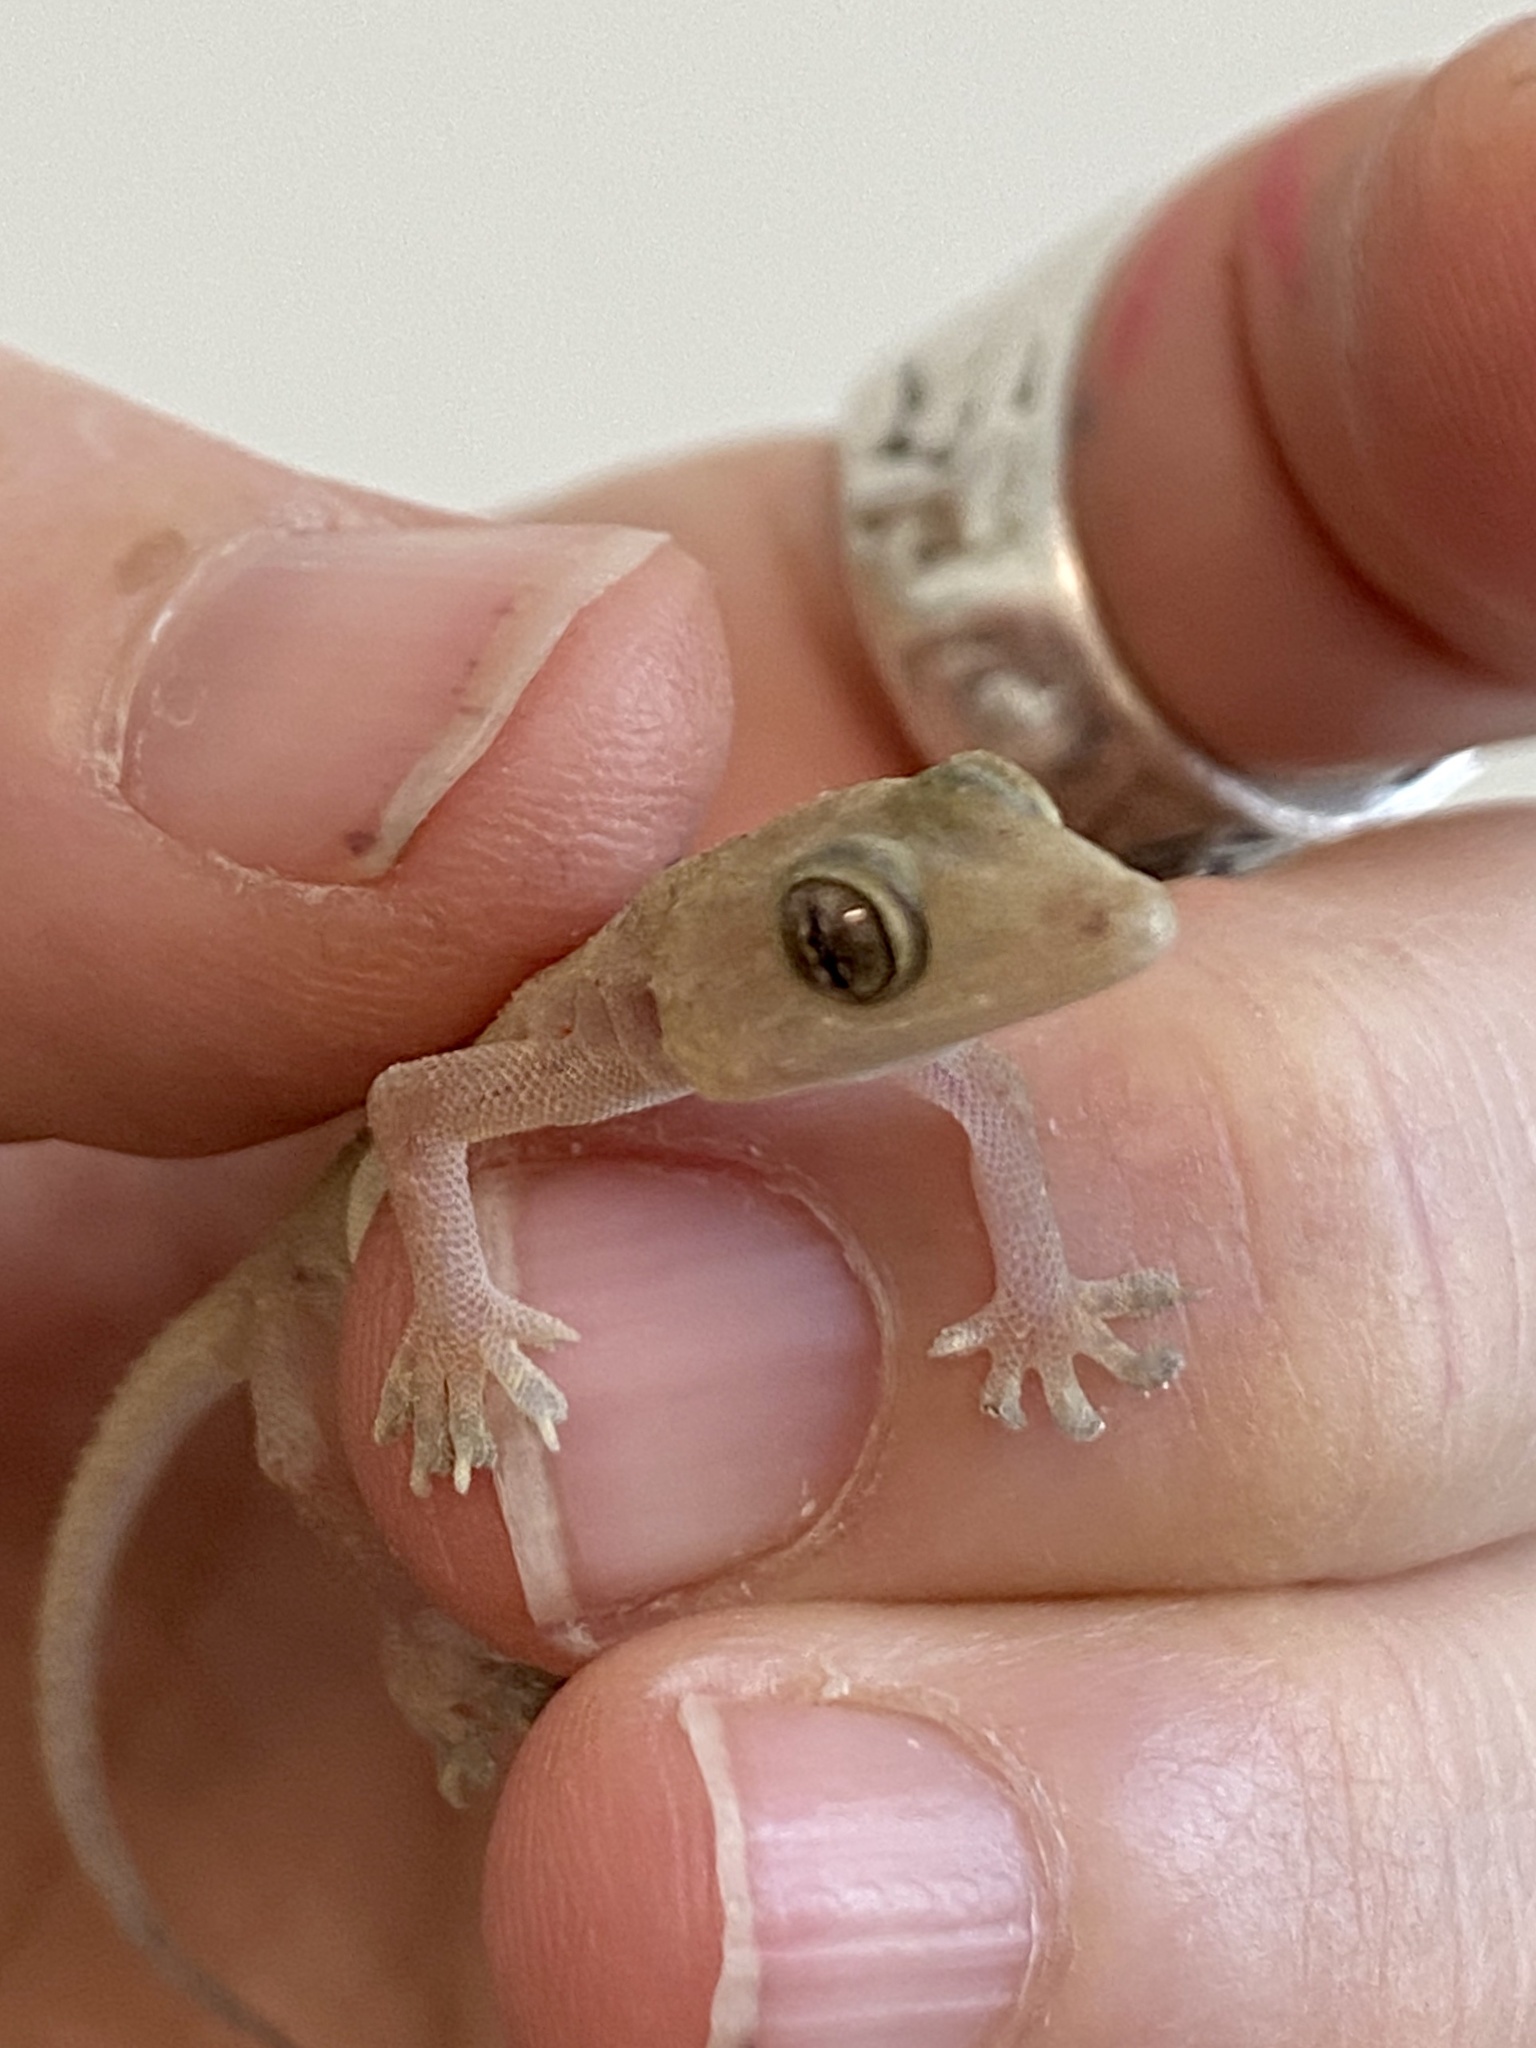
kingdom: Animalia
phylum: Chordata
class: Squamata
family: Gekkonidae
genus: Hemidactylus
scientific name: Hemidactylus mabouia
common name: House gecko
